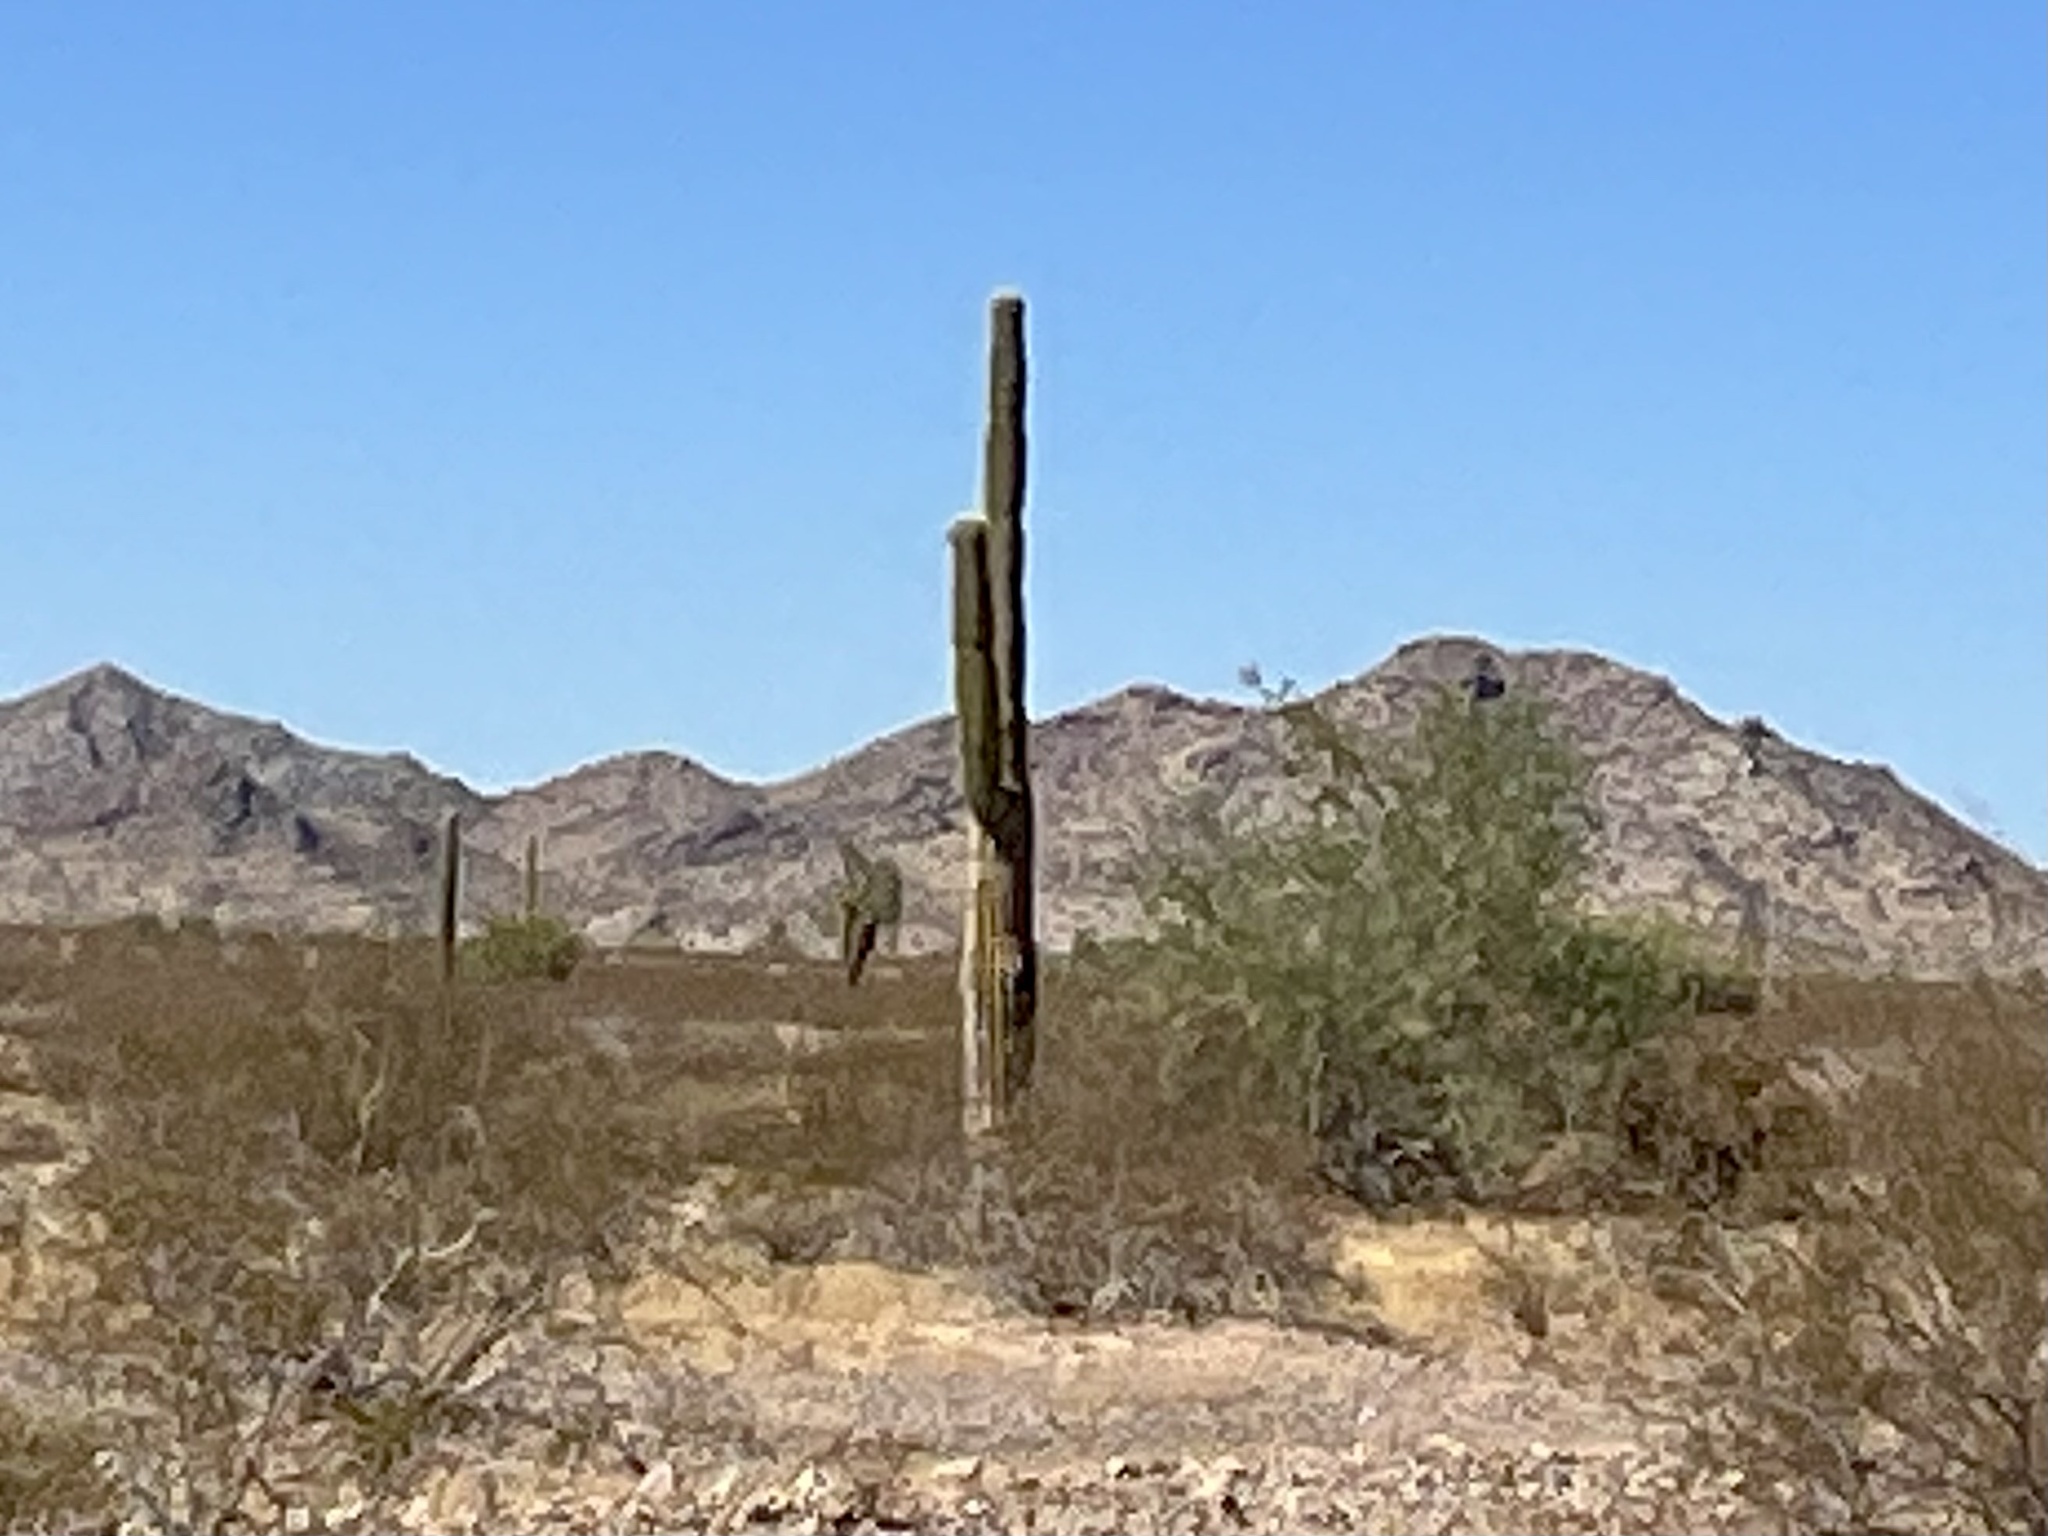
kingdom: Plantae
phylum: Tracheophyta
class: Magnoliopsida
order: Caryophyllales
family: Cactaceae
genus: Carnegiea
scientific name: Carnegiea gigantea
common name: Saguaro
